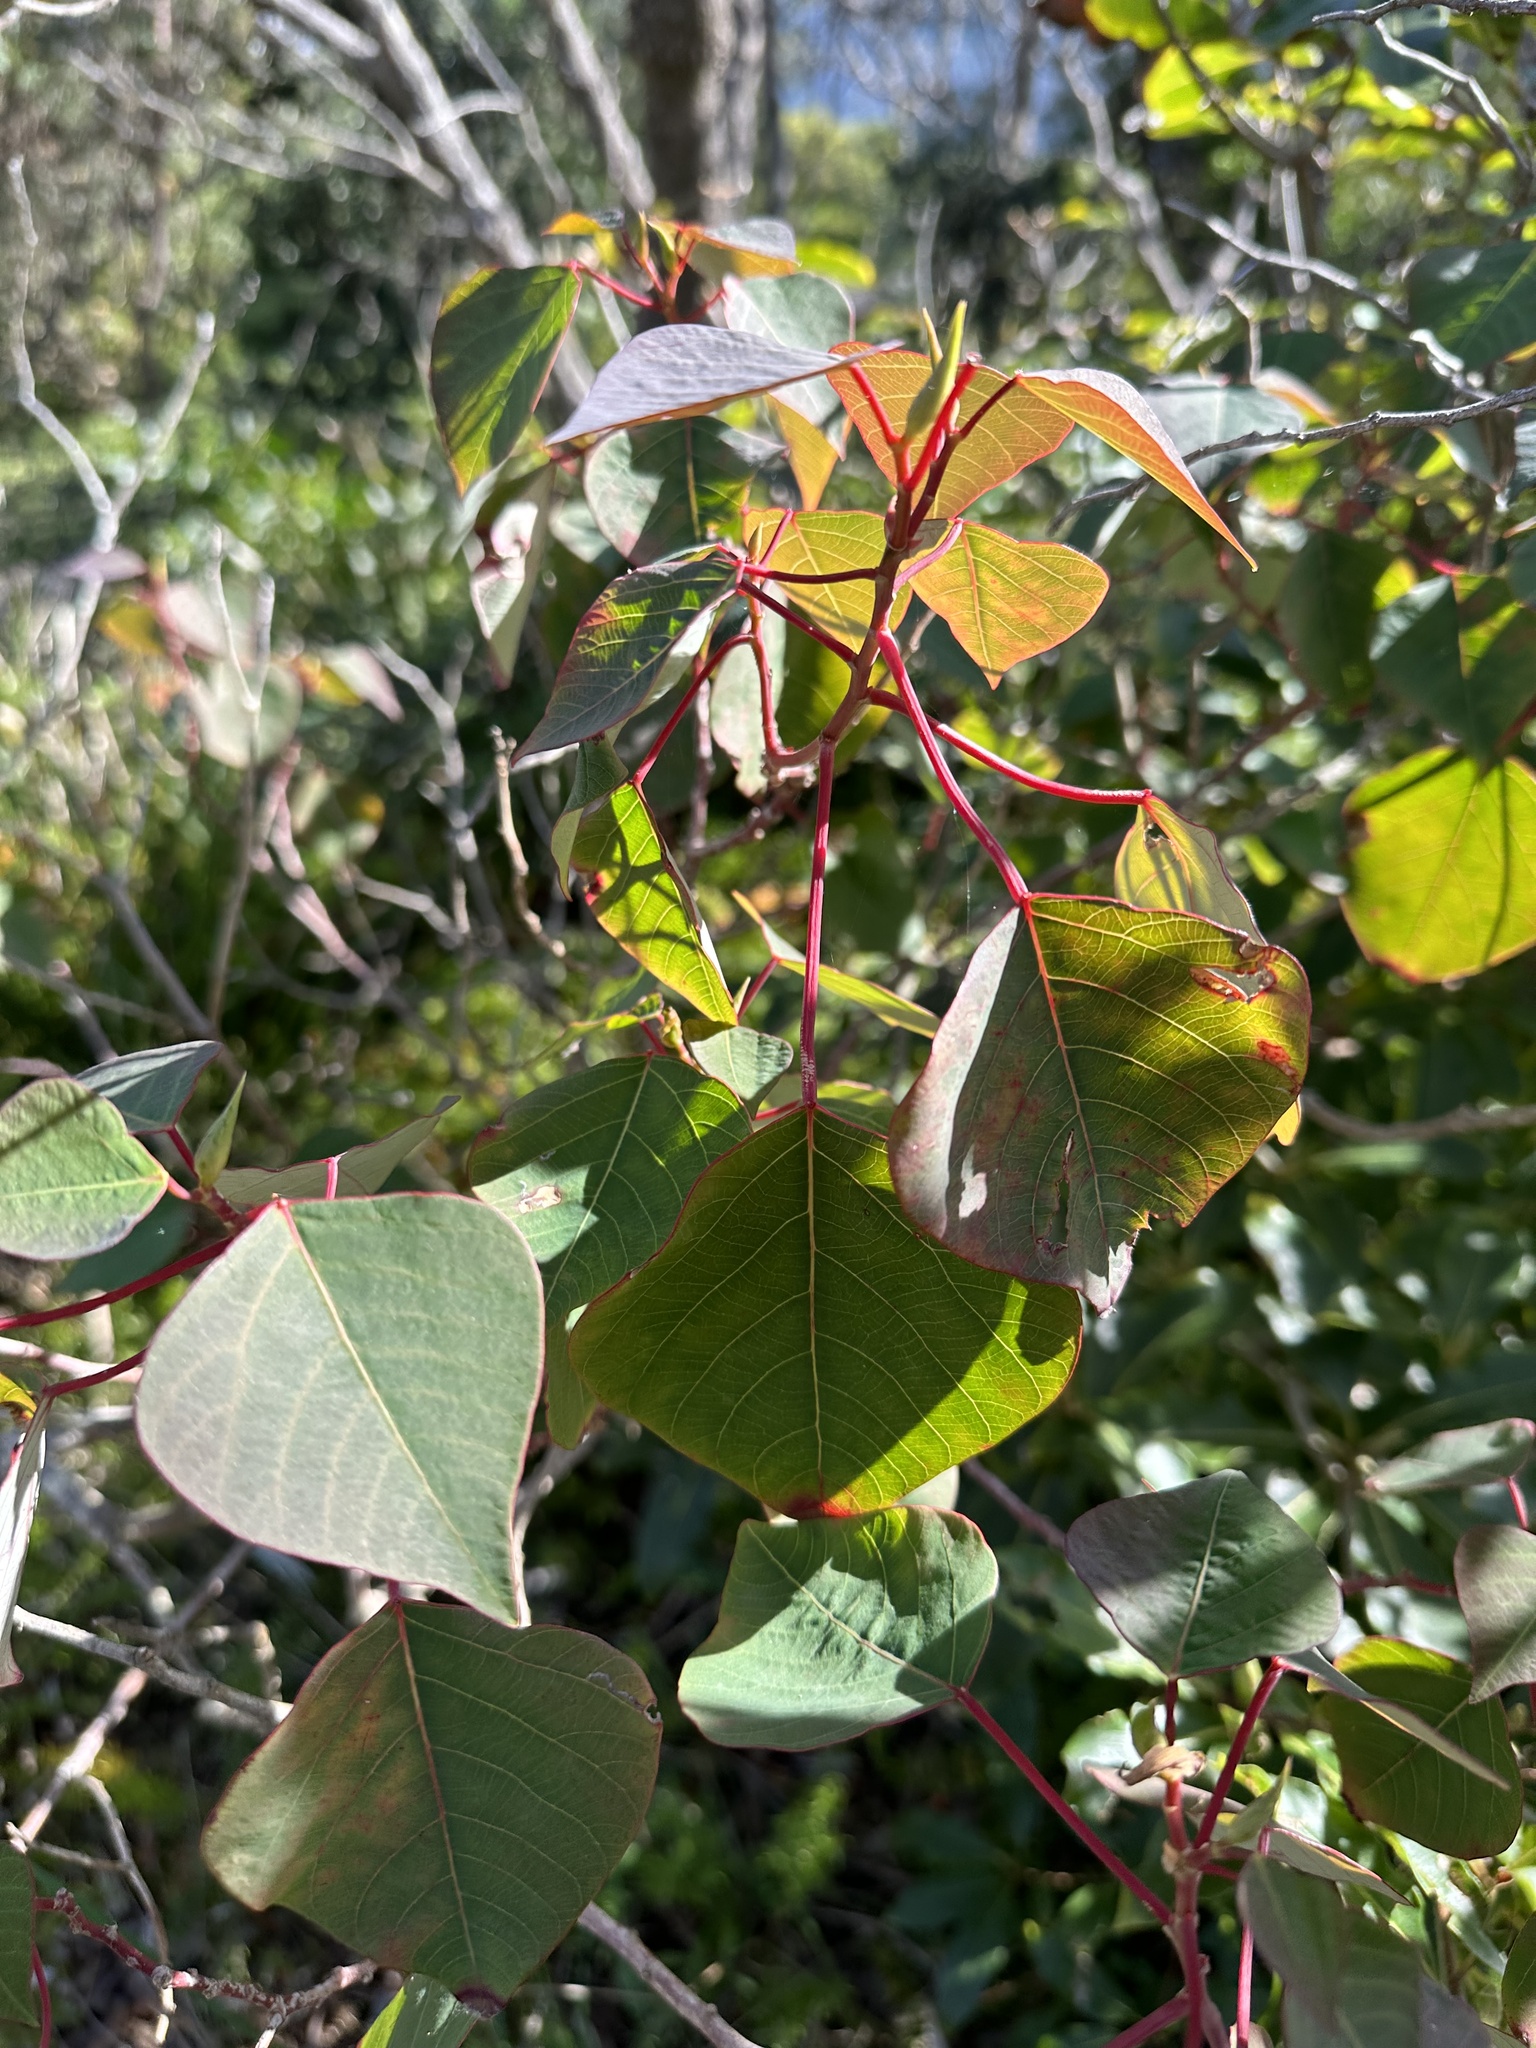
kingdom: Plantae
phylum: Tracheophyta
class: Magnoliopsida
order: Malpighiales
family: Euphorbiaceae
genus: Homalanthus
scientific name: Homalanthus populifolius
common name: Queensland poplar
